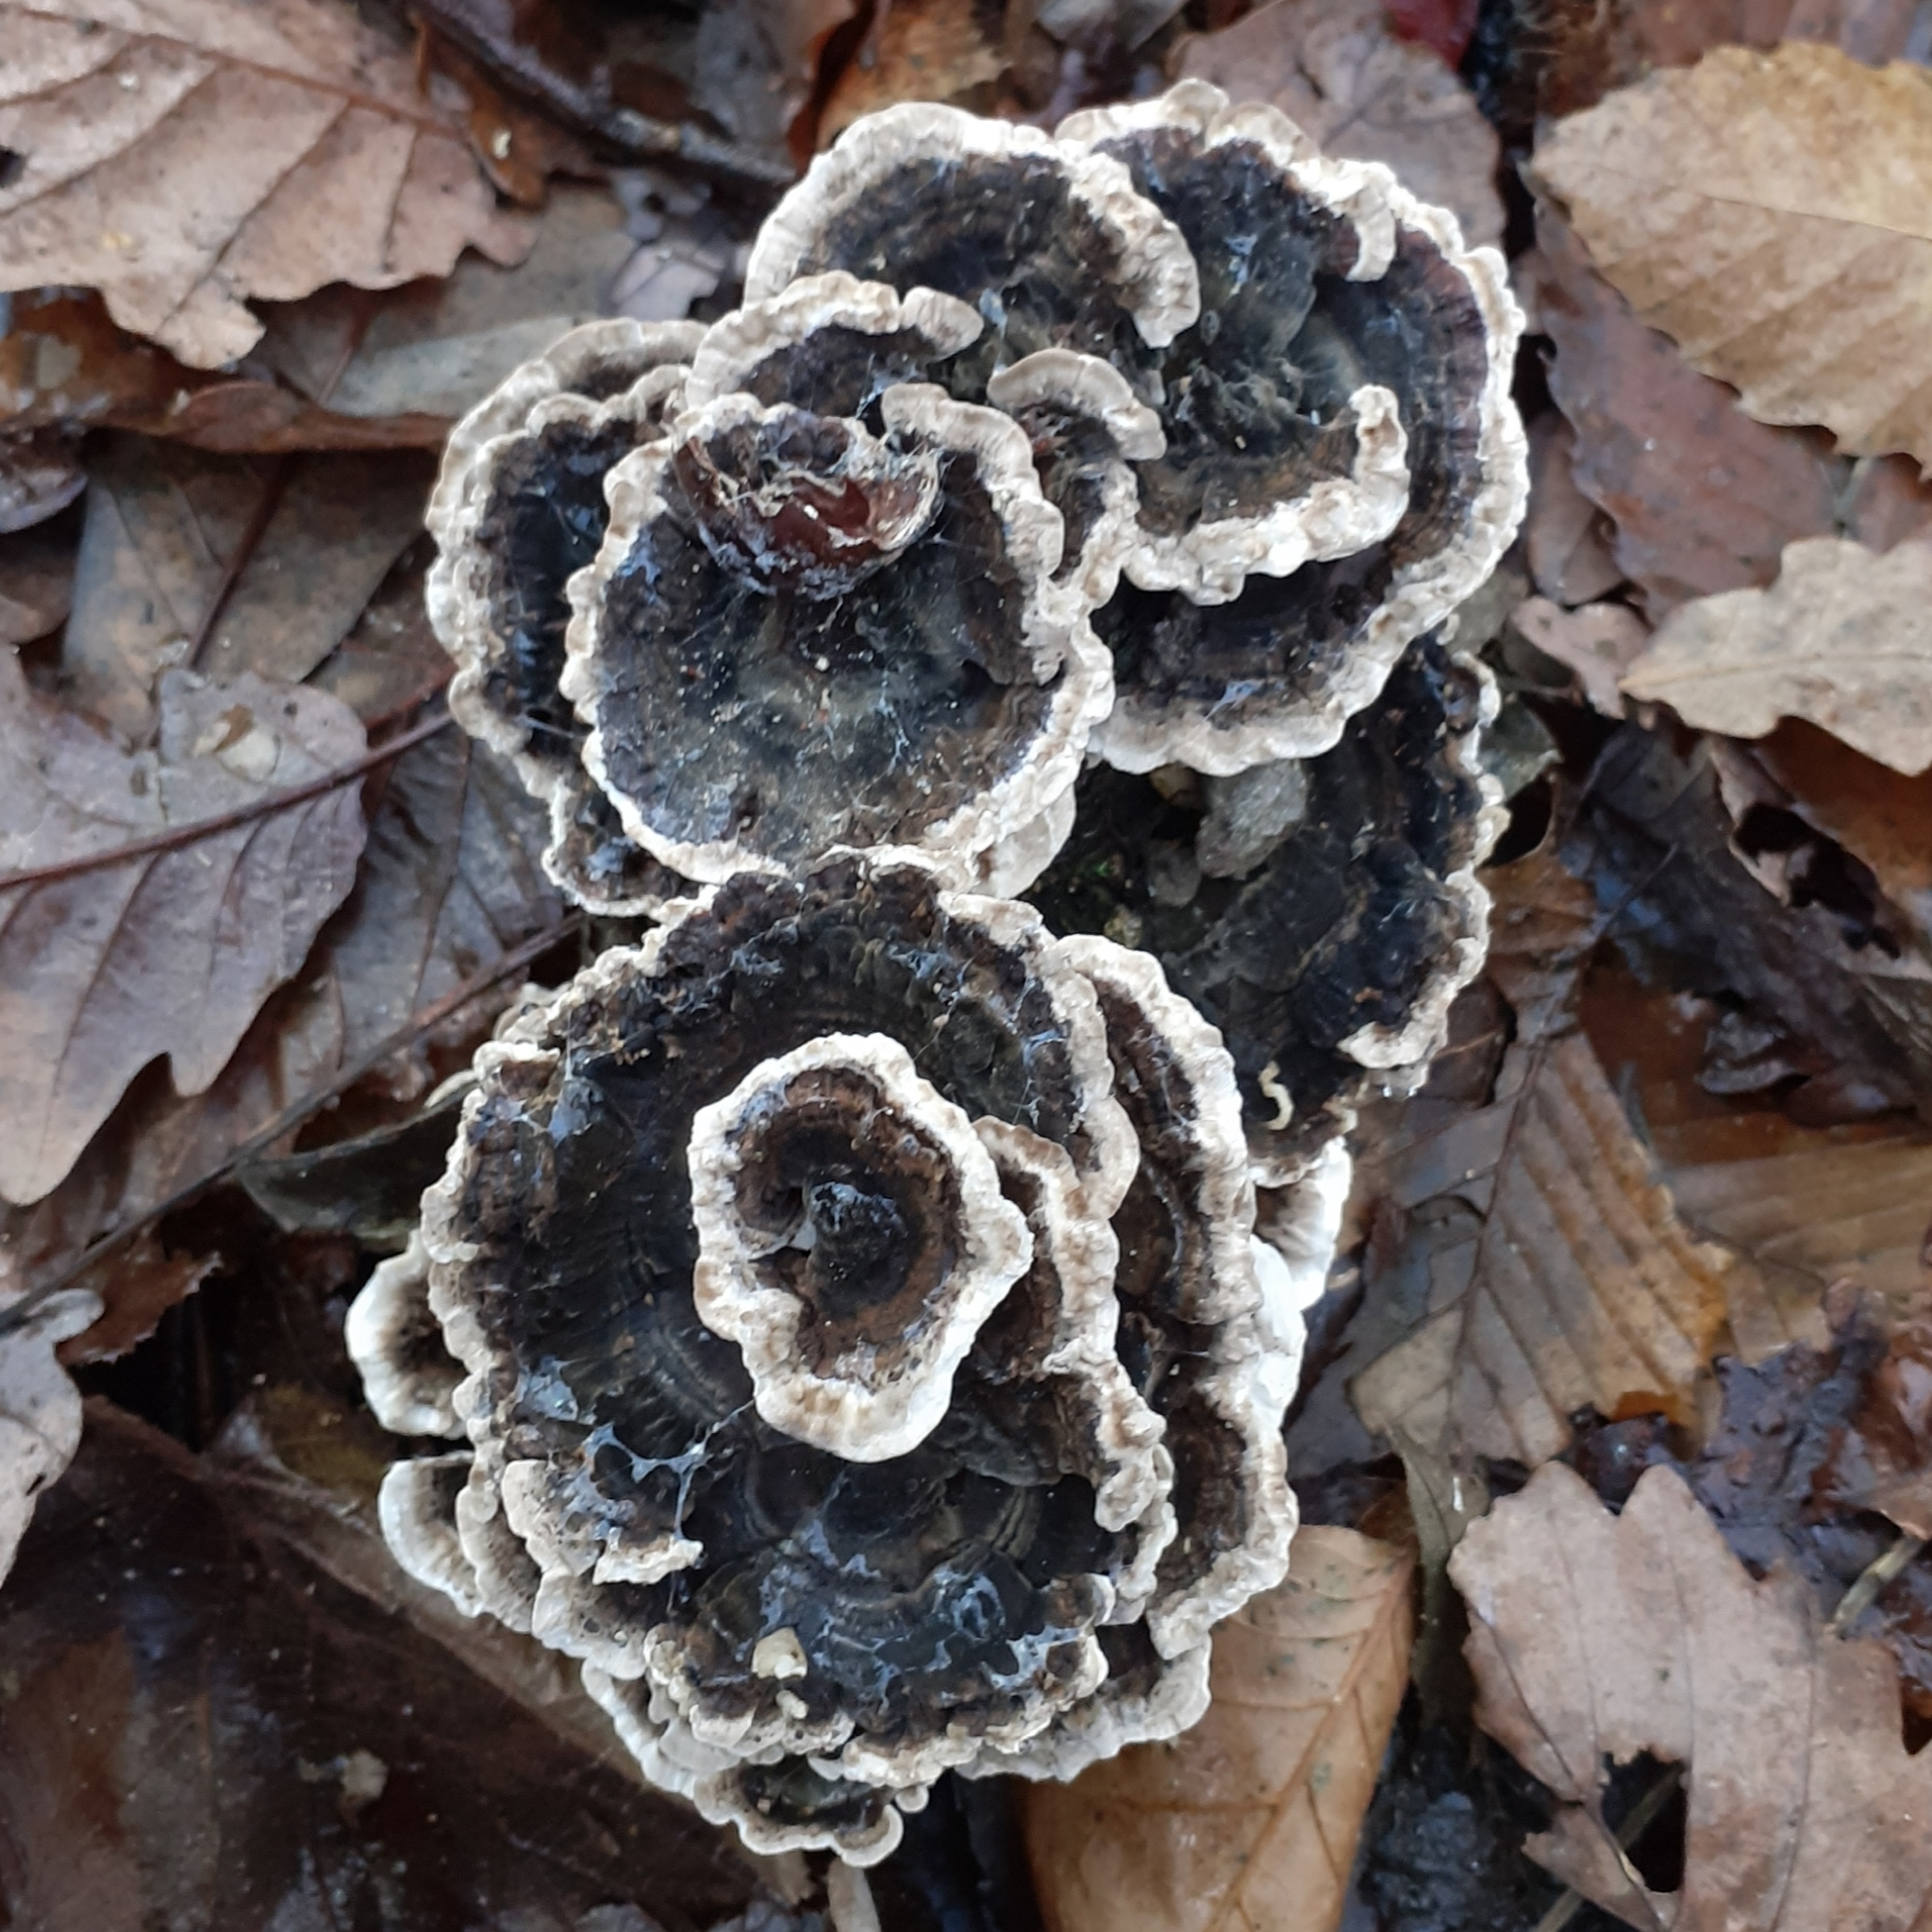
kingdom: Fungi
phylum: Basidiomycota
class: Agaricomycetes
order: Polyporales
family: Polyporaceae
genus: Trametes
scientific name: Trametes versicolor
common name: Turkeytail
